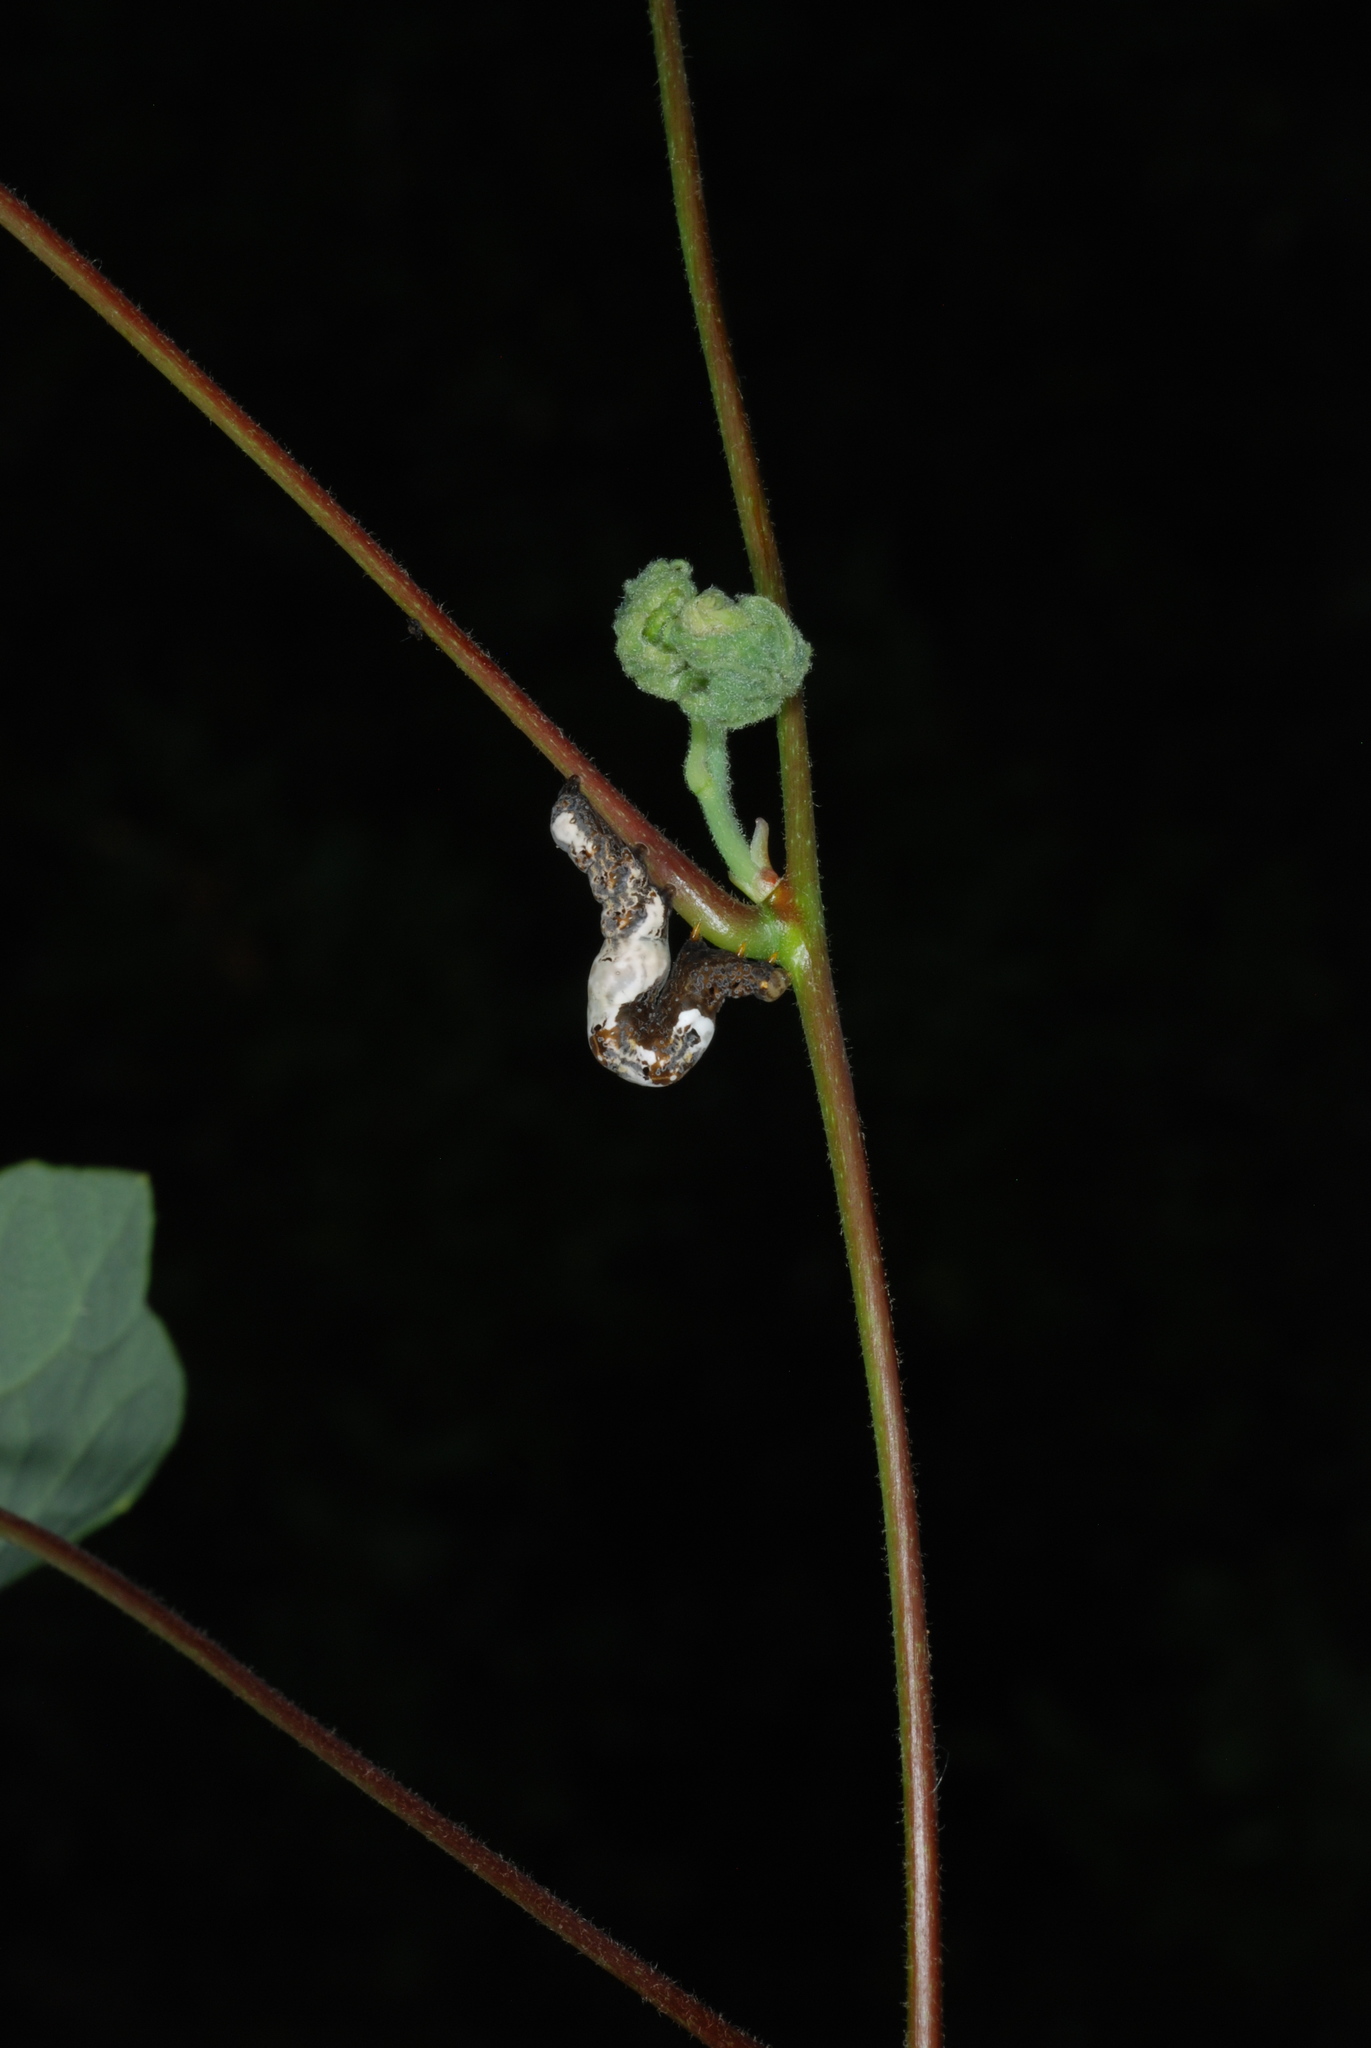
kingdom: Animalia
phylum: Arthropoda
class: Insecta
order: Lepidoptera
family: Erebidae
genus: Plusiodonta
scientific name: Plusiodonta compressipalpis
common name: Moonseed moth
